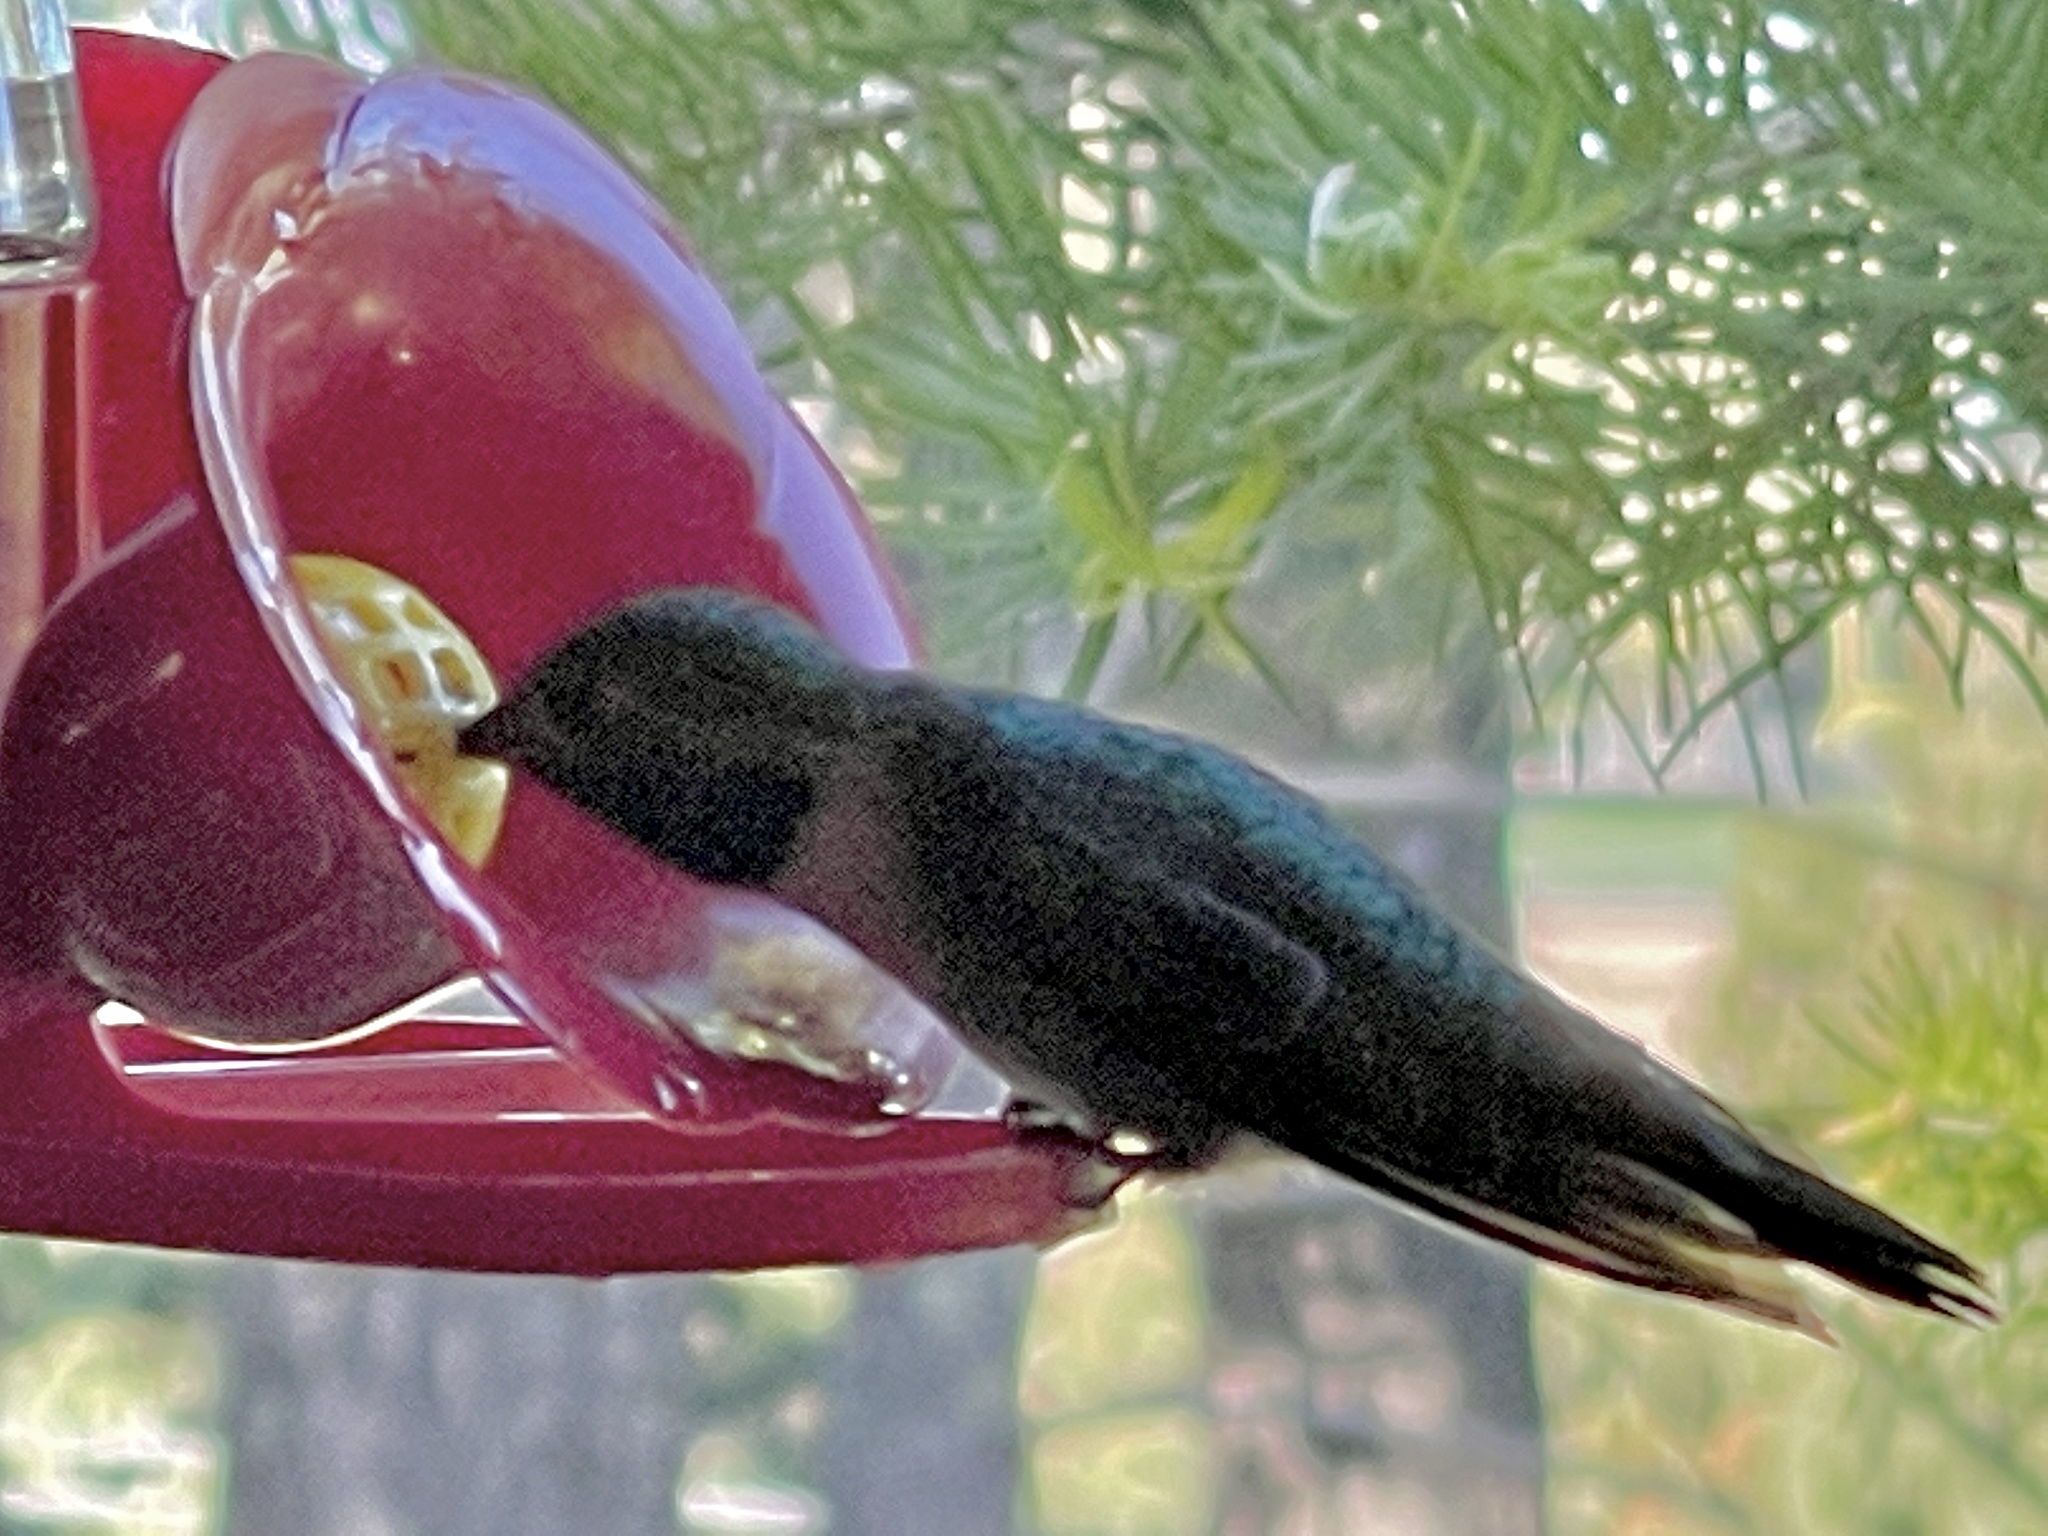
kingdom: Animalia
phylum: Chordata
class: Aves
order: Apodiformes
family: Trochilidae
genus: Selasphorus
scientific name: Selasphorus platycercus
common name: Broad-tailed hummingbird
